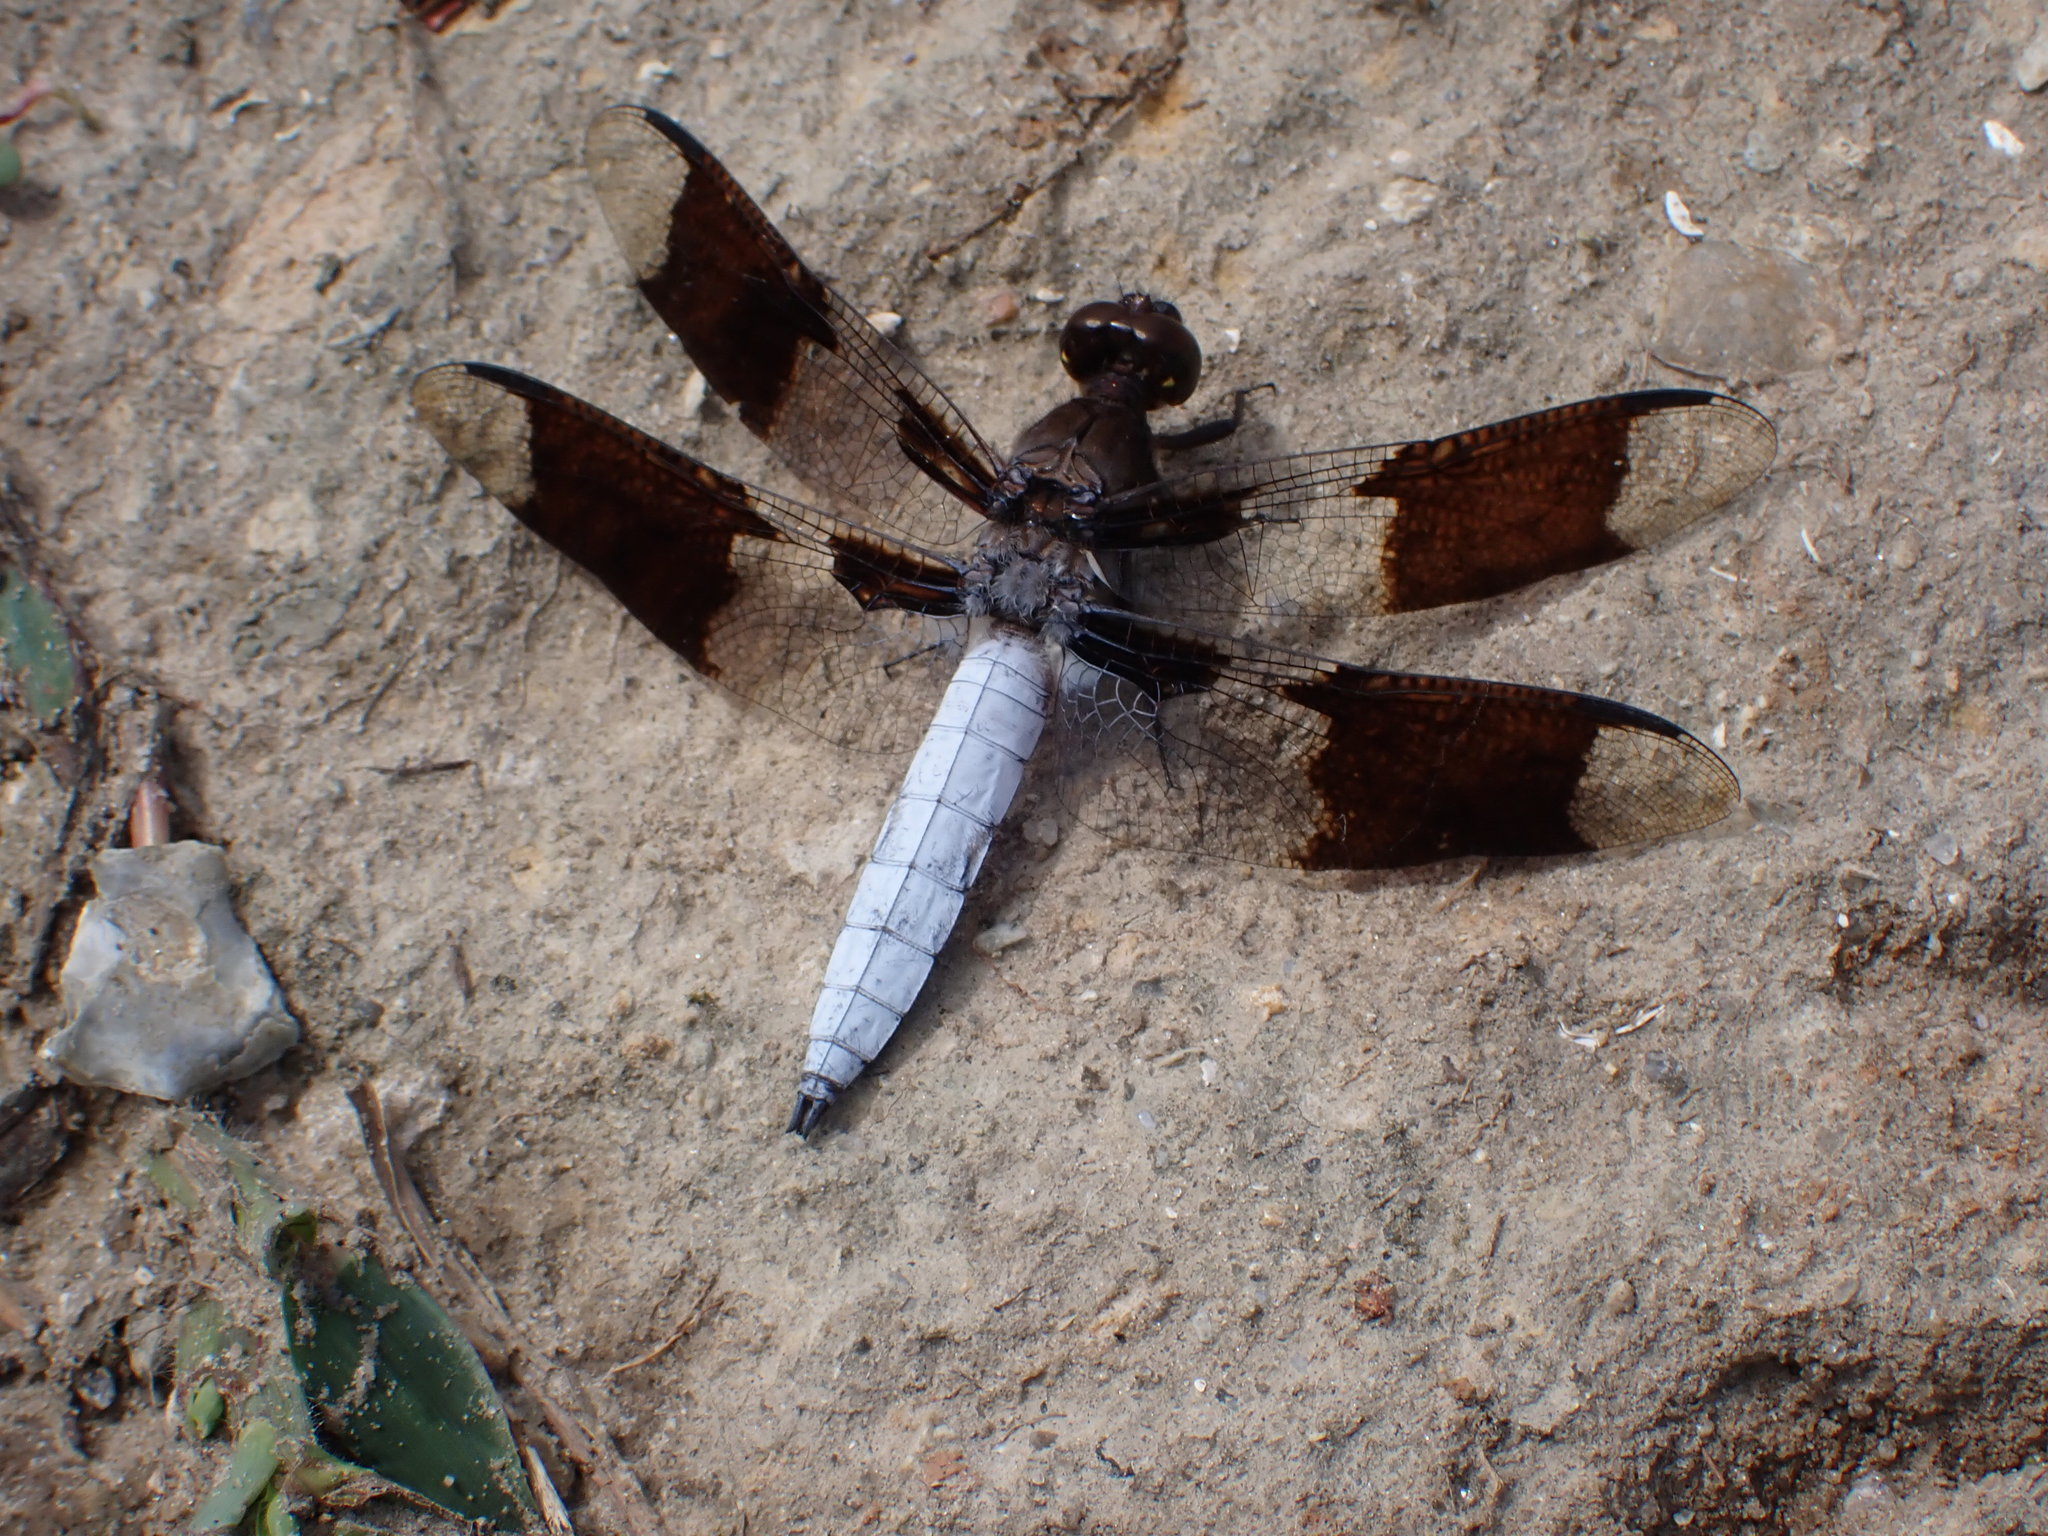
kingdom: Animalia
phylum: Arthropoda
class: Insecta
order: Odonata
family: Libellulidae
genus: Plathemis
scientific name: Plathemis lydia
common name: Common whitetail
